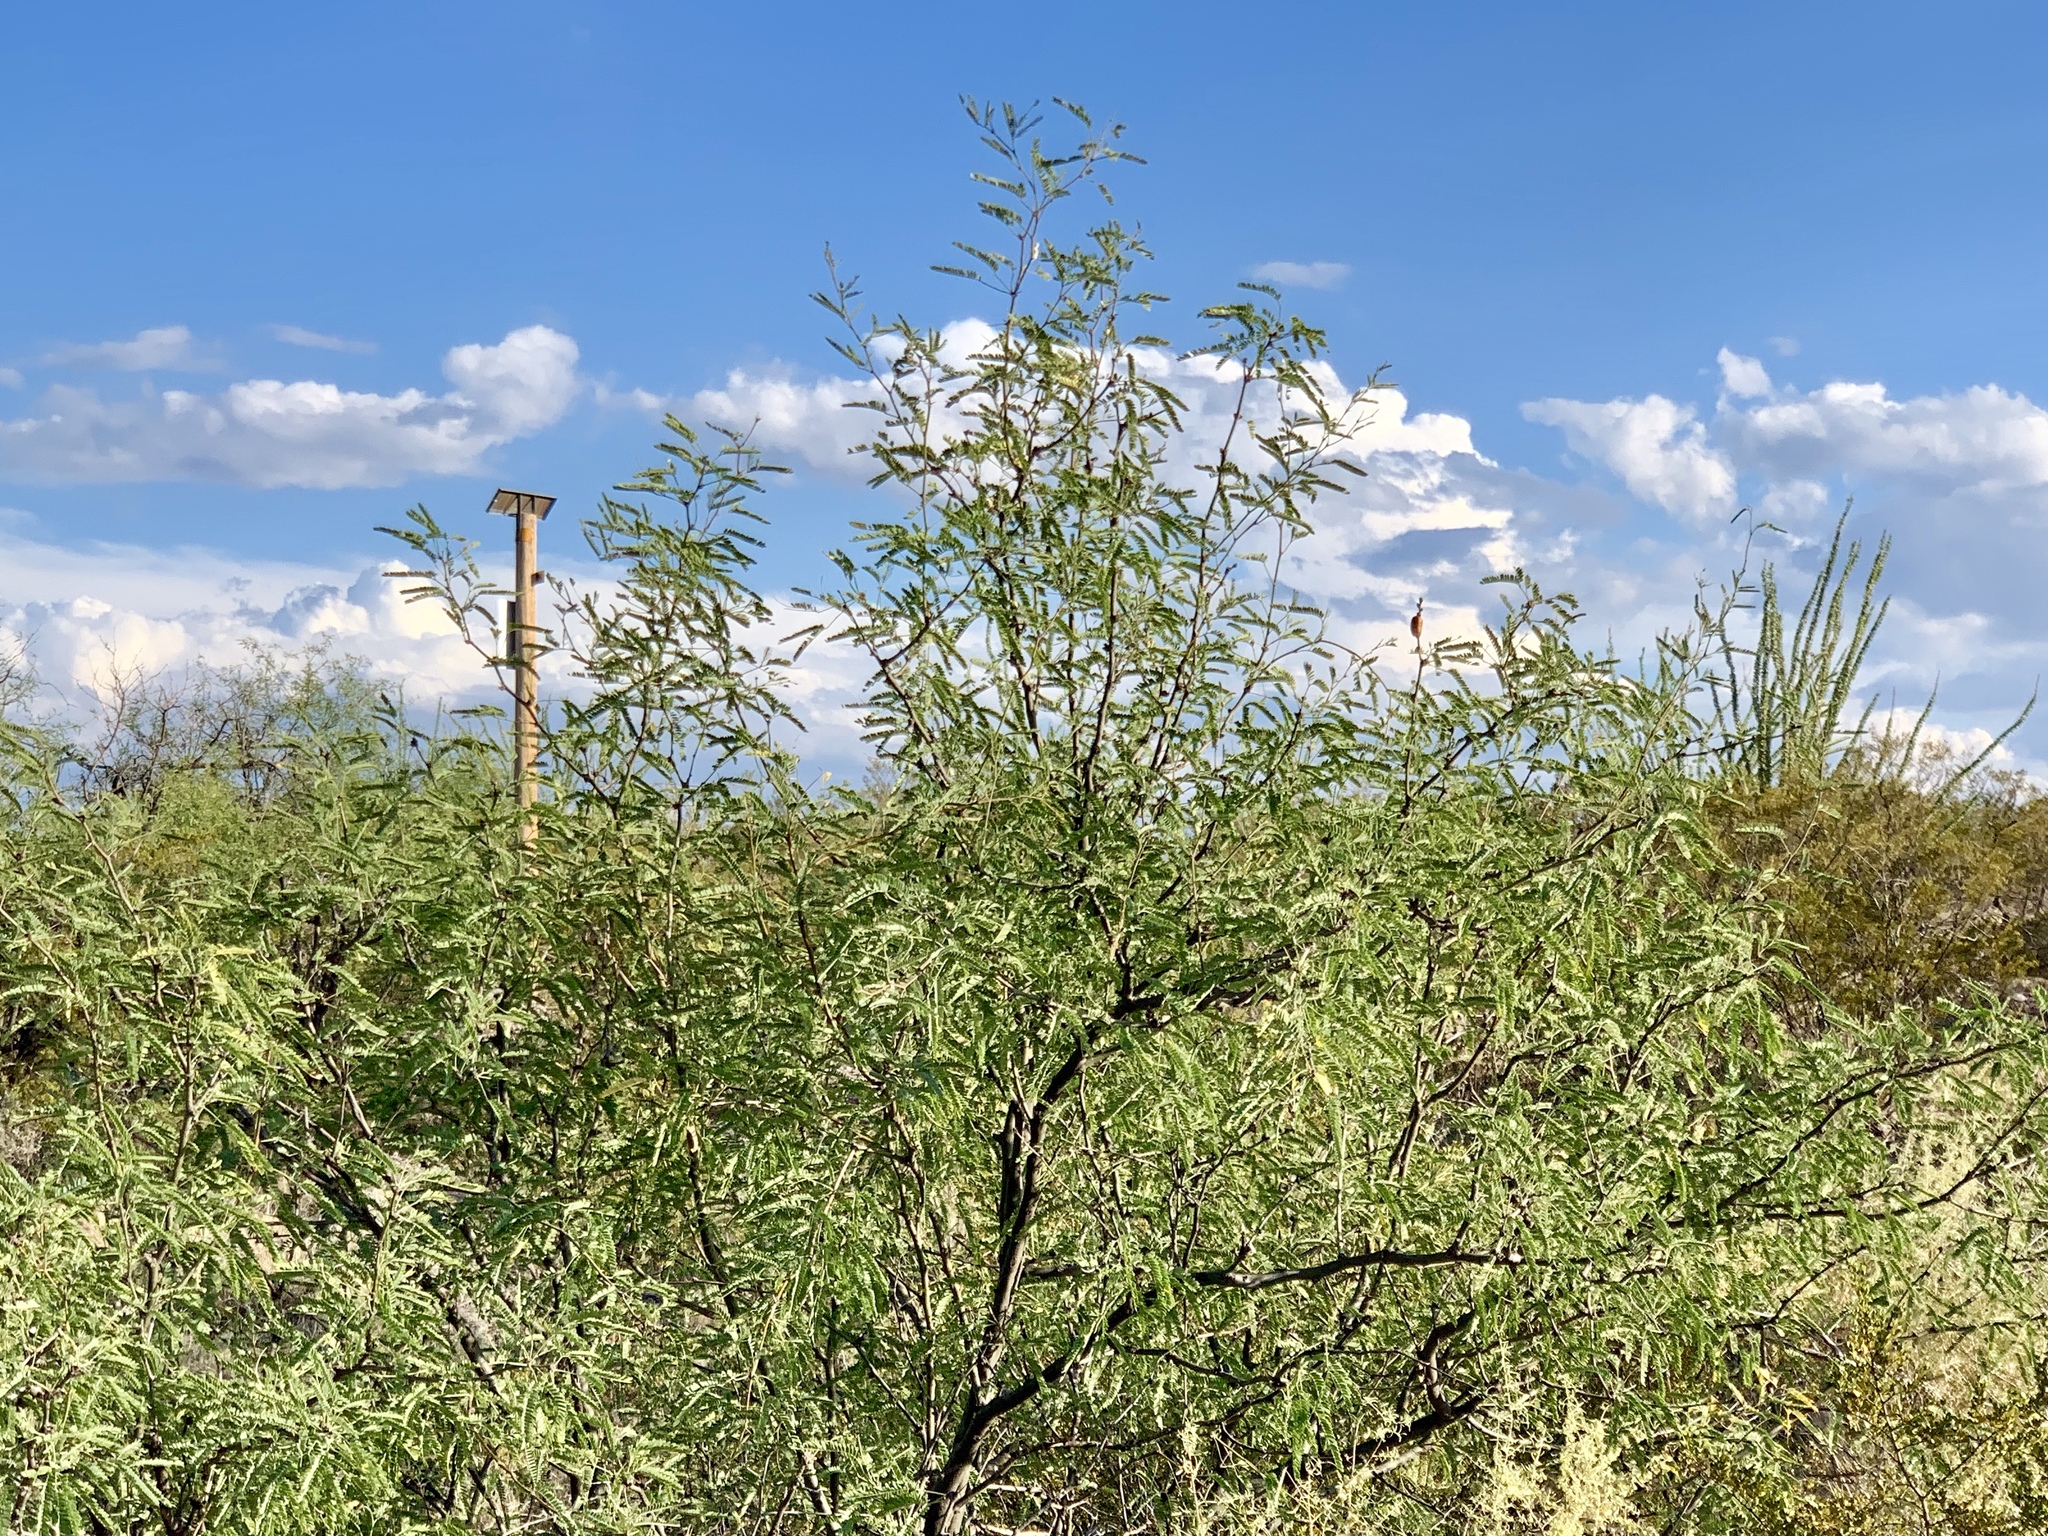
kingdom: Plantae
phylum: Tracheophyta
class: Magnoliopsida
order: Fabales
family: Fabaceae
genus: Prosopis
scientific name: Prosopis velutina
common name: Velvet mesquite
